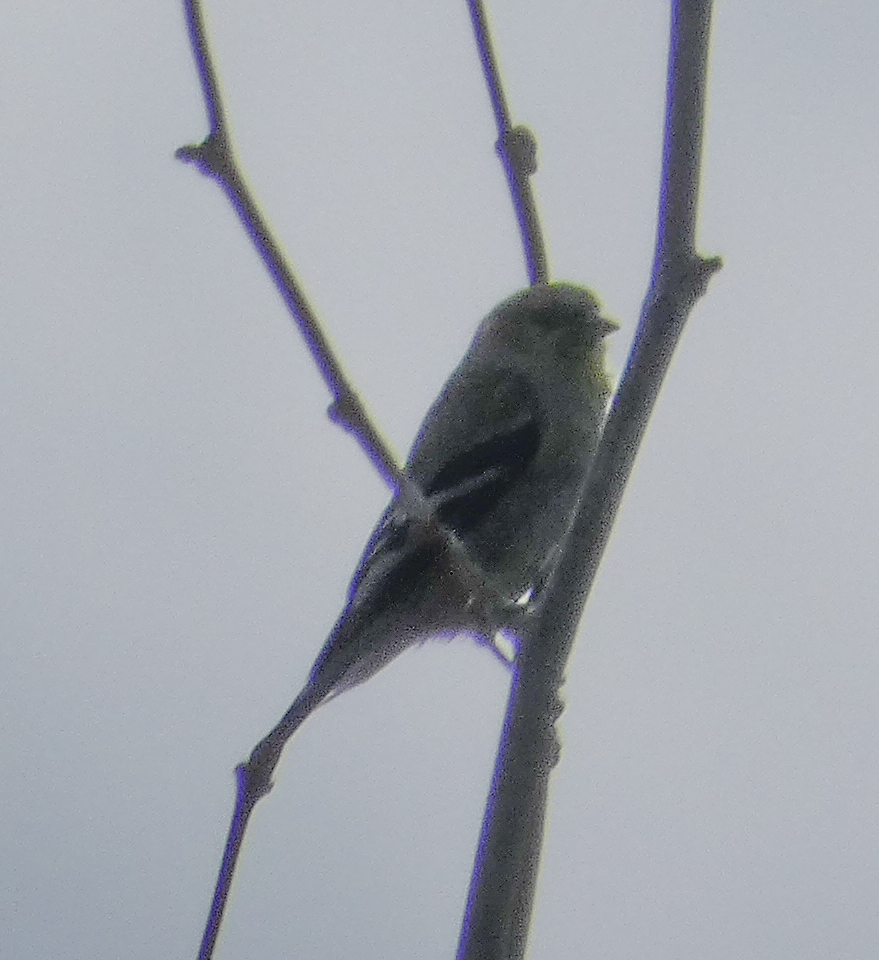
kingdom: Animalia
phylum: Chordata
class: Aves
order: Passeriformes
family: Fringillidae
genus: Spinus
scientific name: Spinus tristis
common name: American goldfinch
